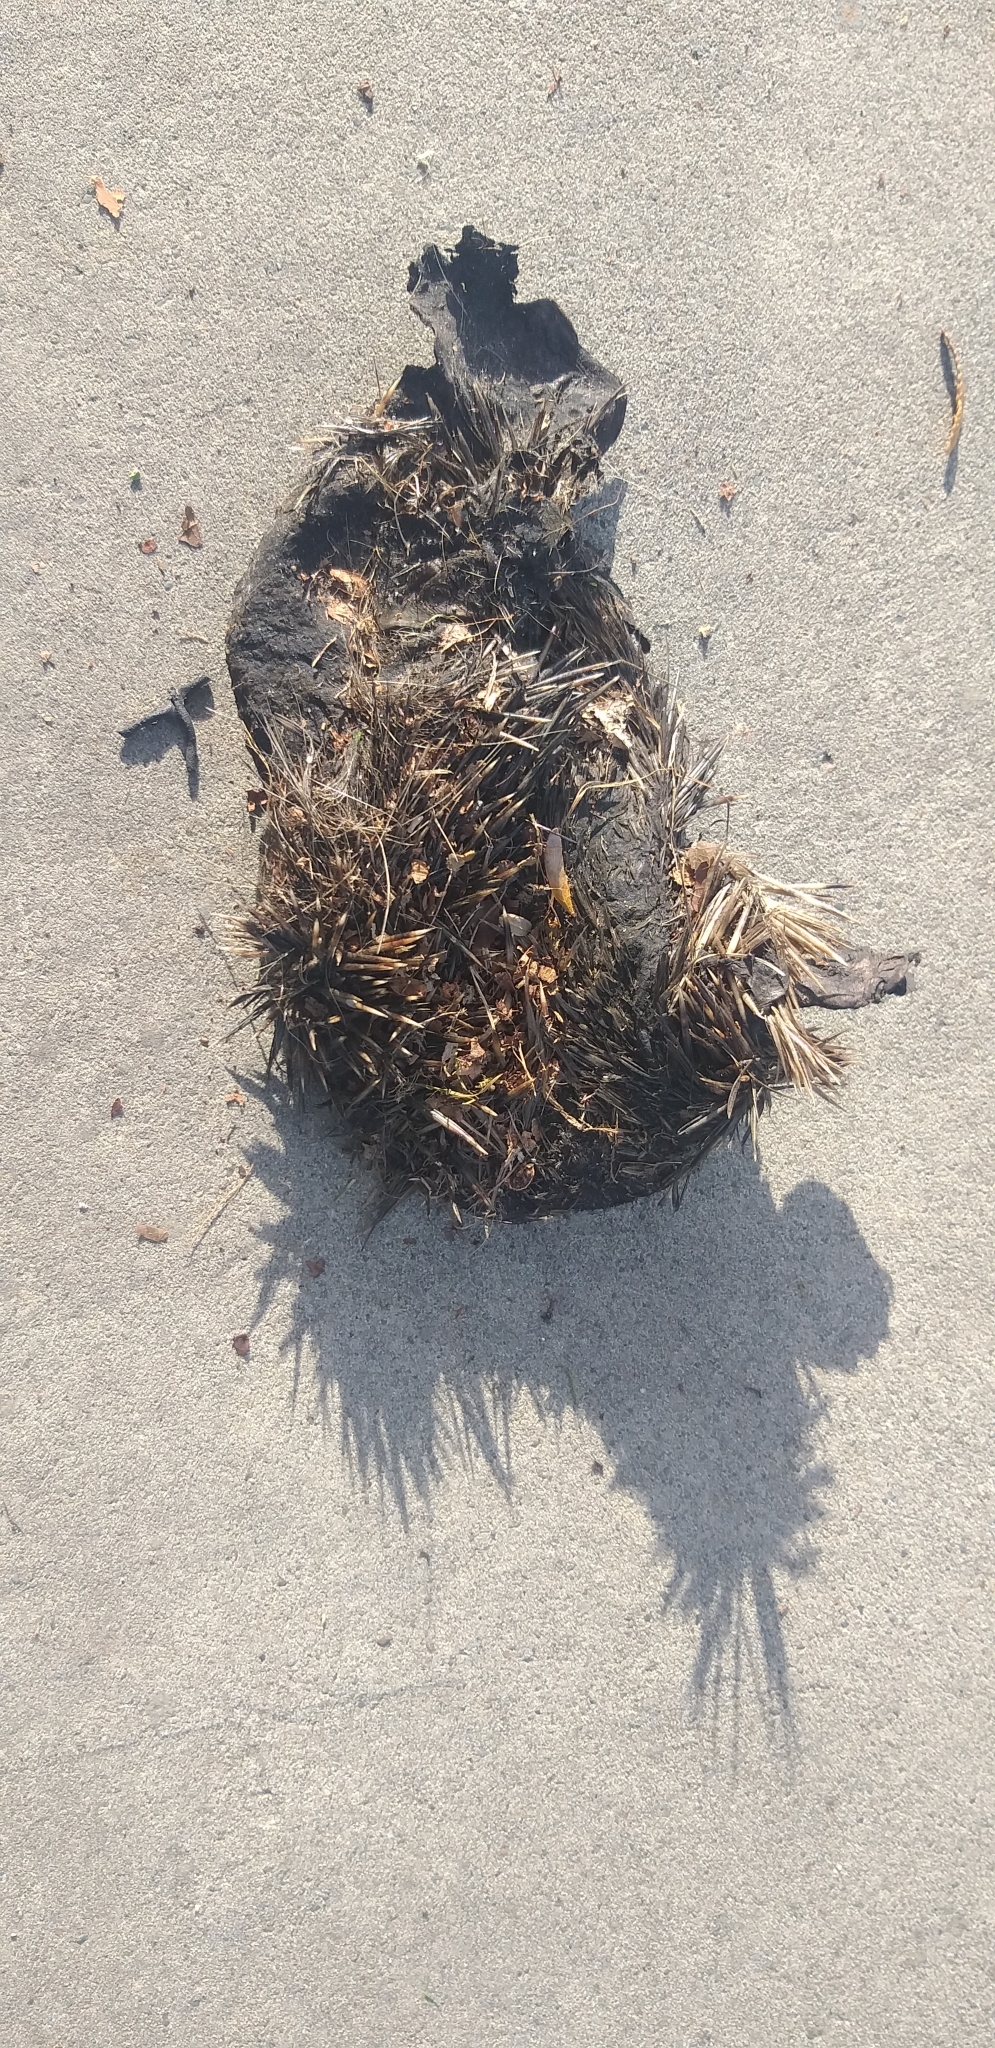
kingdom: Animalia
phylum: Chordata
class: Mammalia
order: Erinaceomorpha
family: Erinaceidae
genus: Erinaceus
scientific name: Erinaceus europaeus
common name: West european hedgehog
